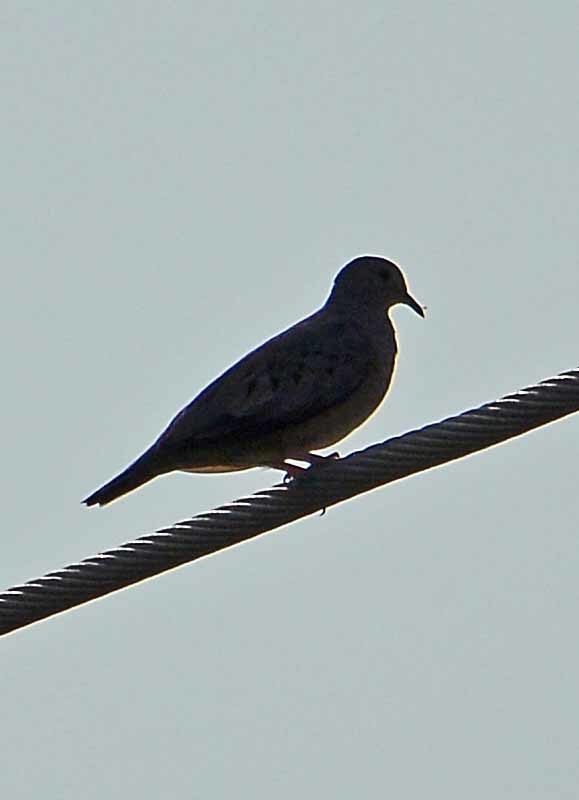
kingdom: Animalia
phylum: Chordata
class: Aves
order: Columbiformes
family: Columbidae
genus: Columbina
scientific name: Columbina talpacoti
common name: Ruddy ground dove
